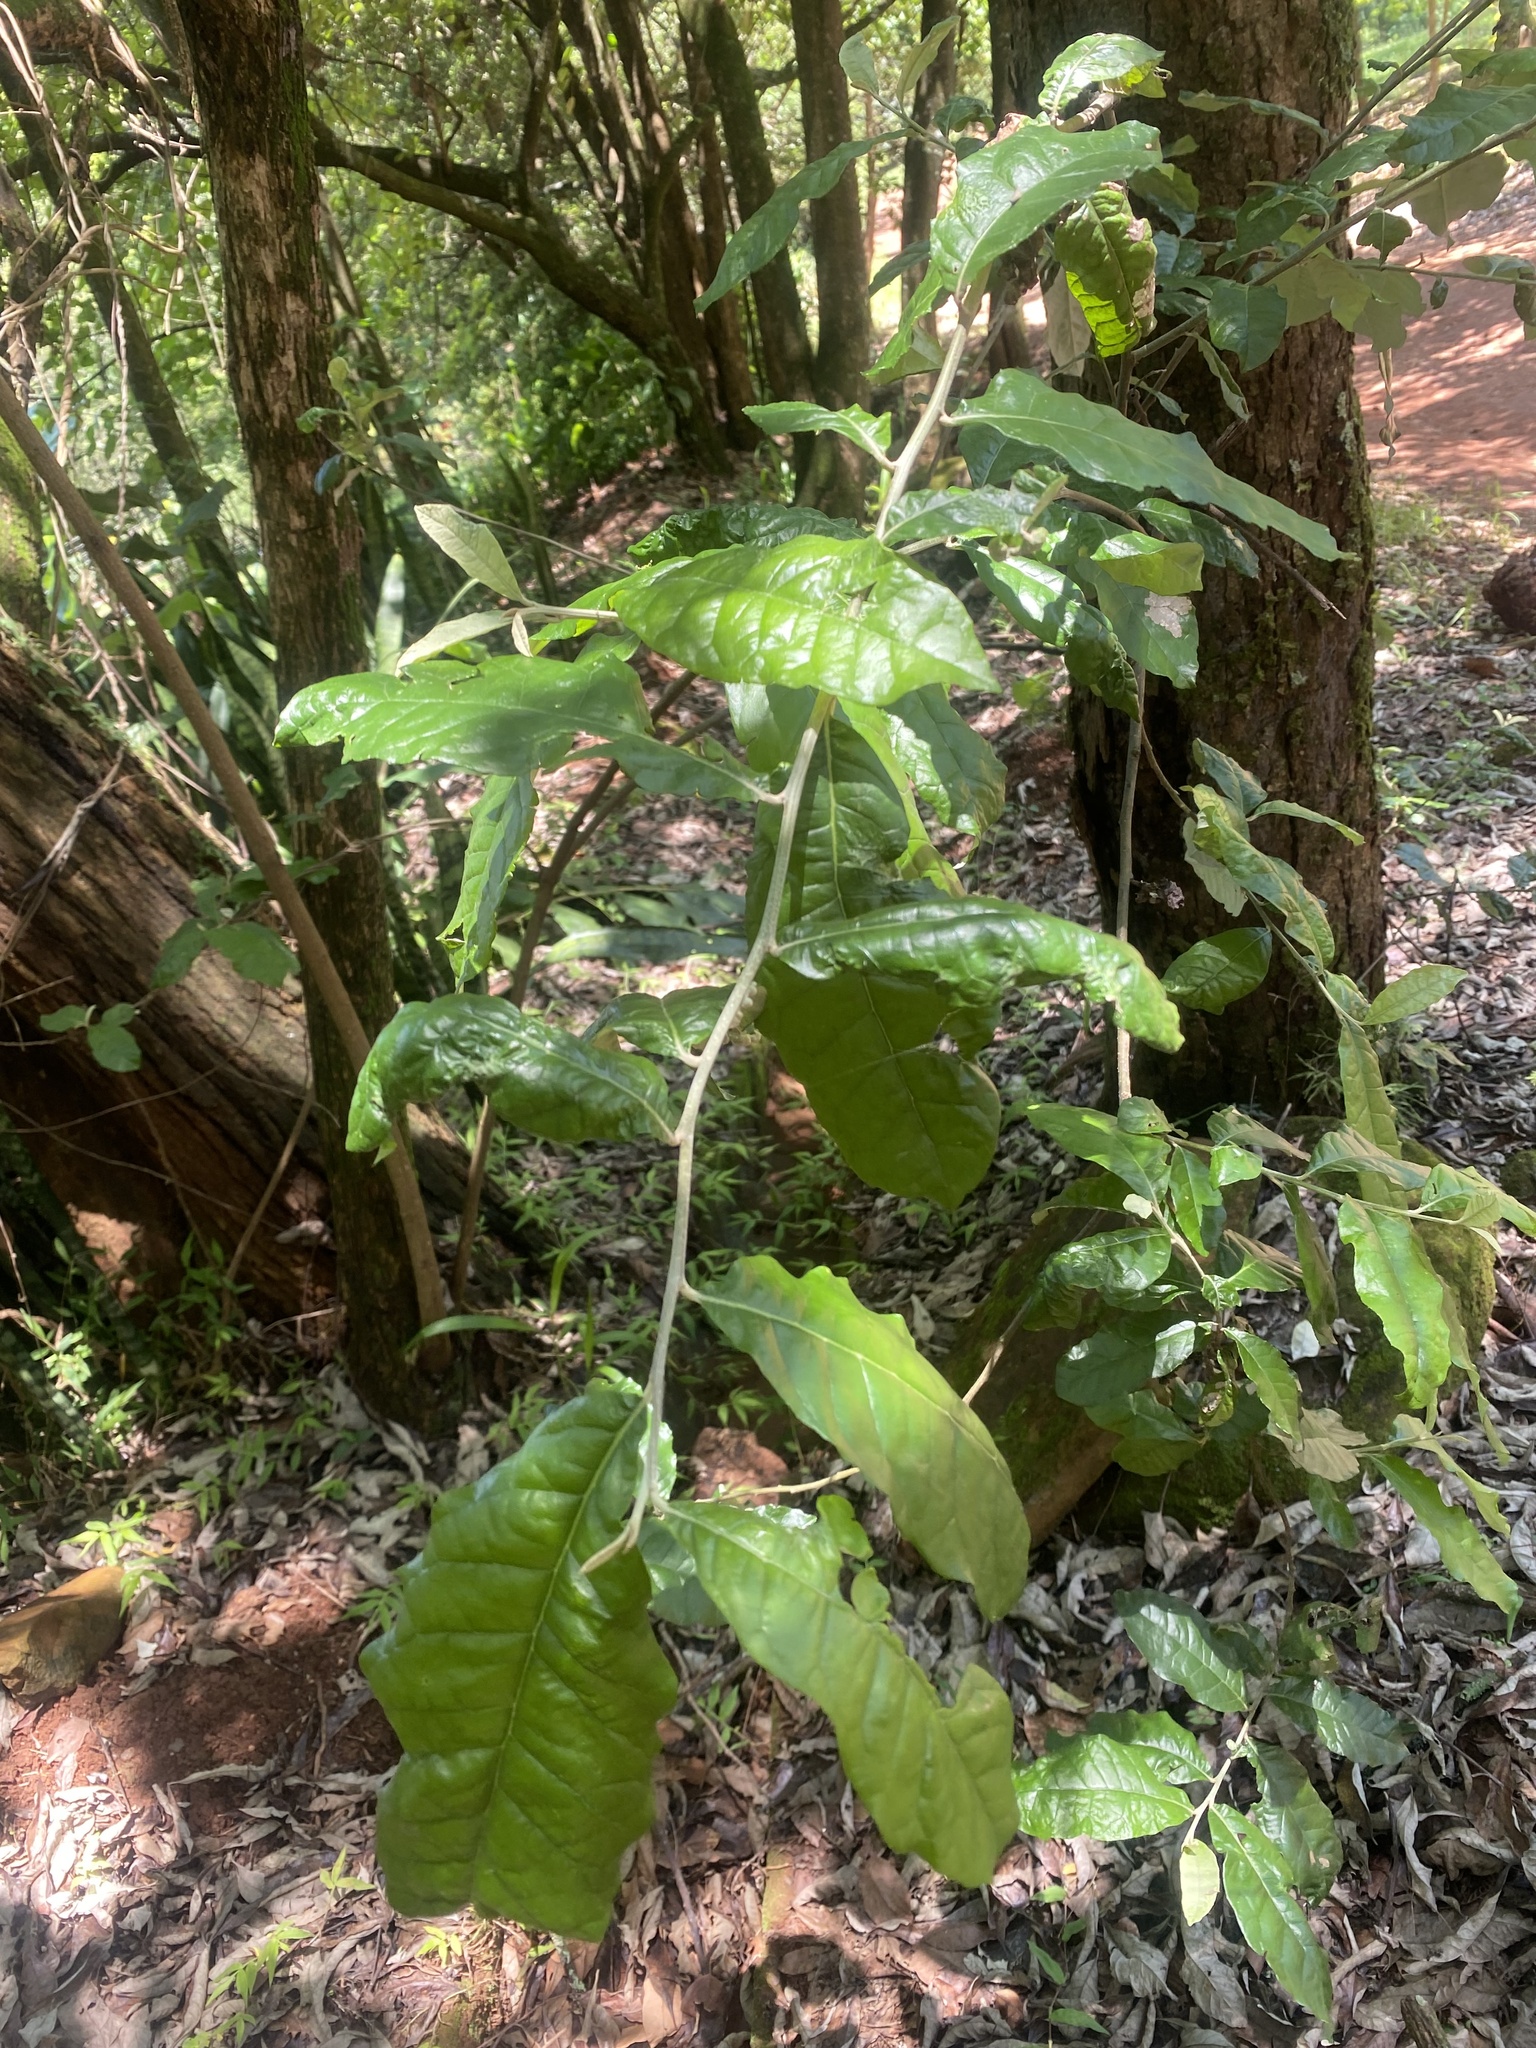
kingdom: Plantae
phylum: Tracheophyta
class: Magnoliopsida
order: Asterales
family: Asteraceae
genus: Brachylaena
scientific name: Brachylaena discolor
